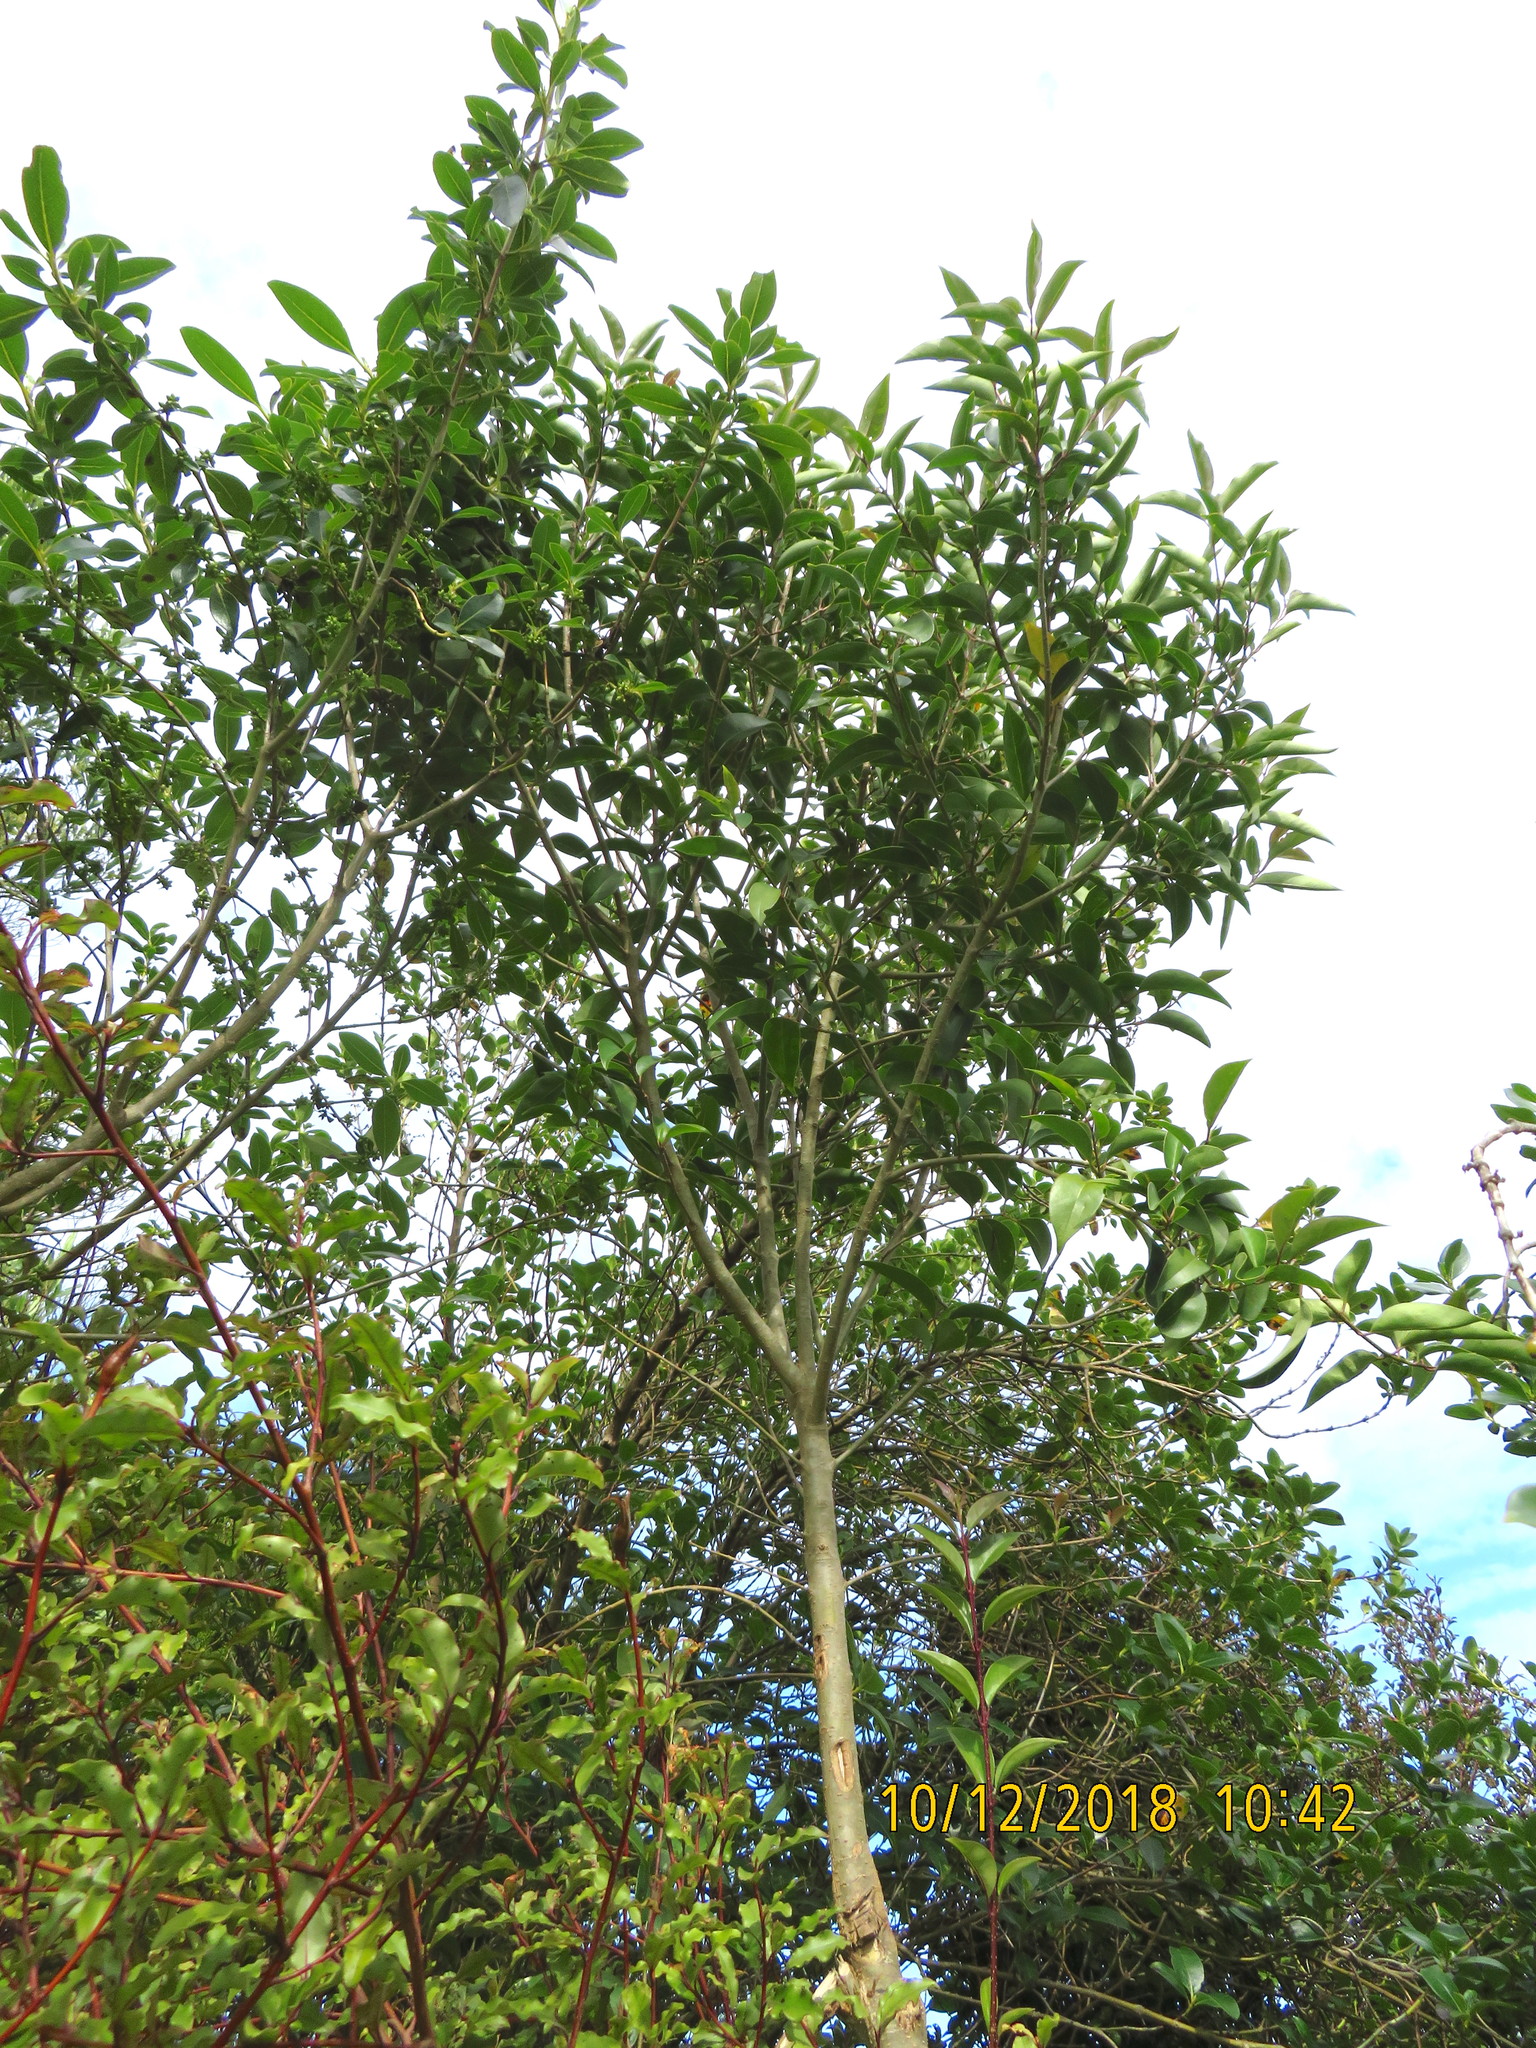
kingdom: Plantae
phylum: Tracheophyta
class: Magnoliopsida
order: Lamiales
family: Oleaceae
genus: Ligustrum
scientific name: Ligustrum lucidum
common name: Glossy privet
